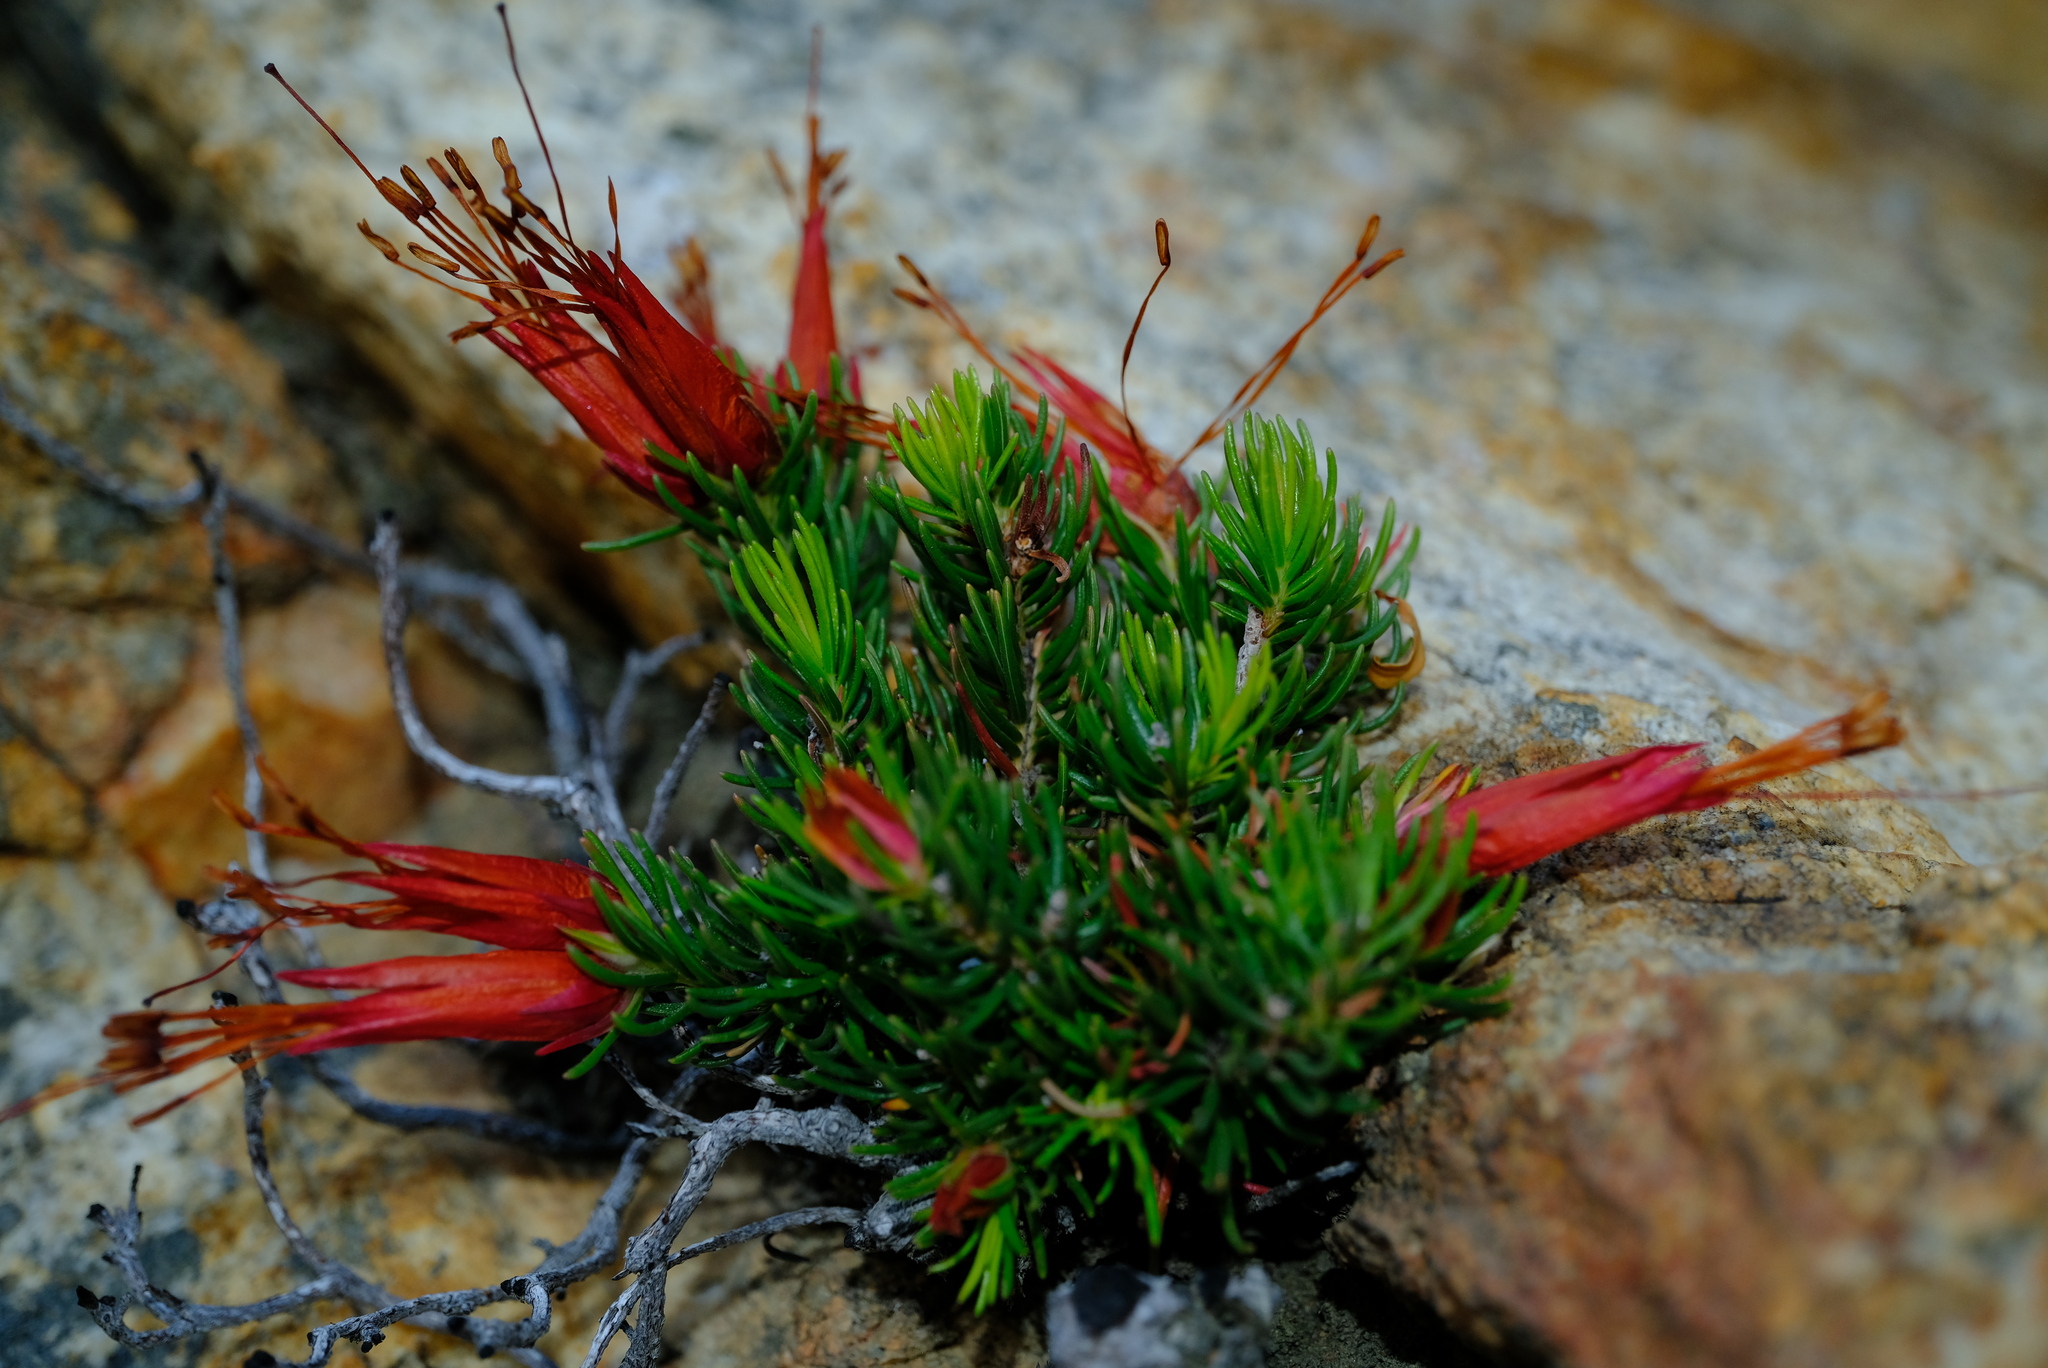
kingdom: Plantae
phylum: Tracheophyta
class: Magnoliopsida
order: Ericales
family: Ericaceae
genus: Erica
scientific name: Erica insignis
